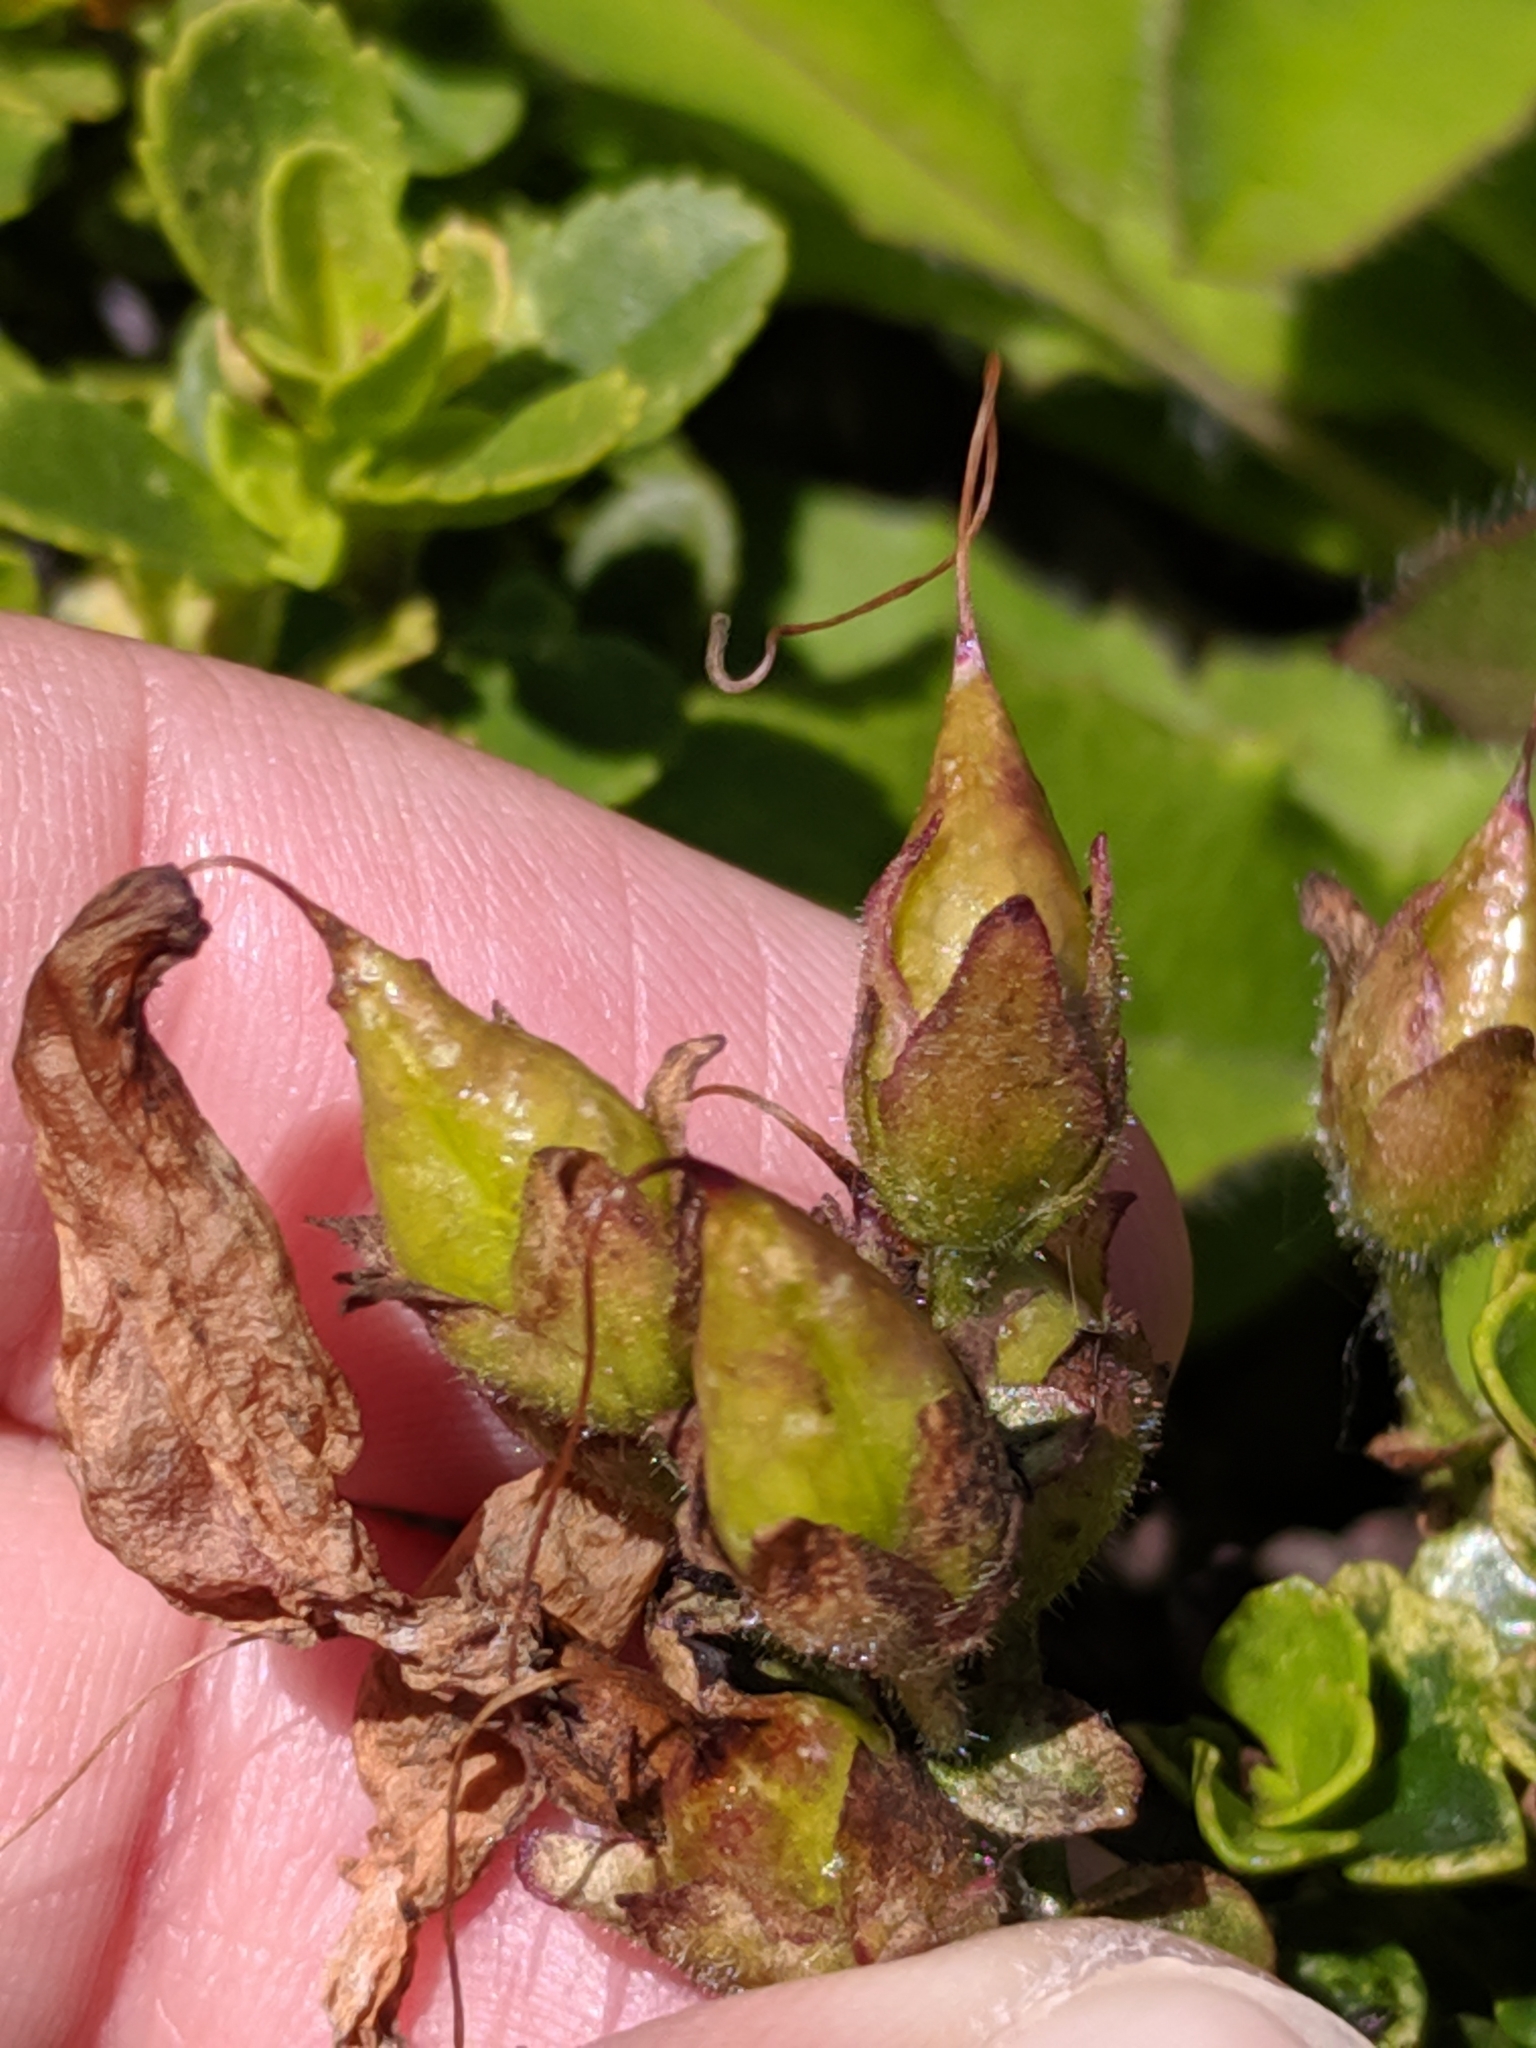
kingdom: Plantae
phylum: Tracheophyta
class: Magnoliopsida
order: Lamiales
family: Plantaginaceae
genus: Penstemon
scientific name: Penstemon davidsonii
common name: Davidson's penstemon
